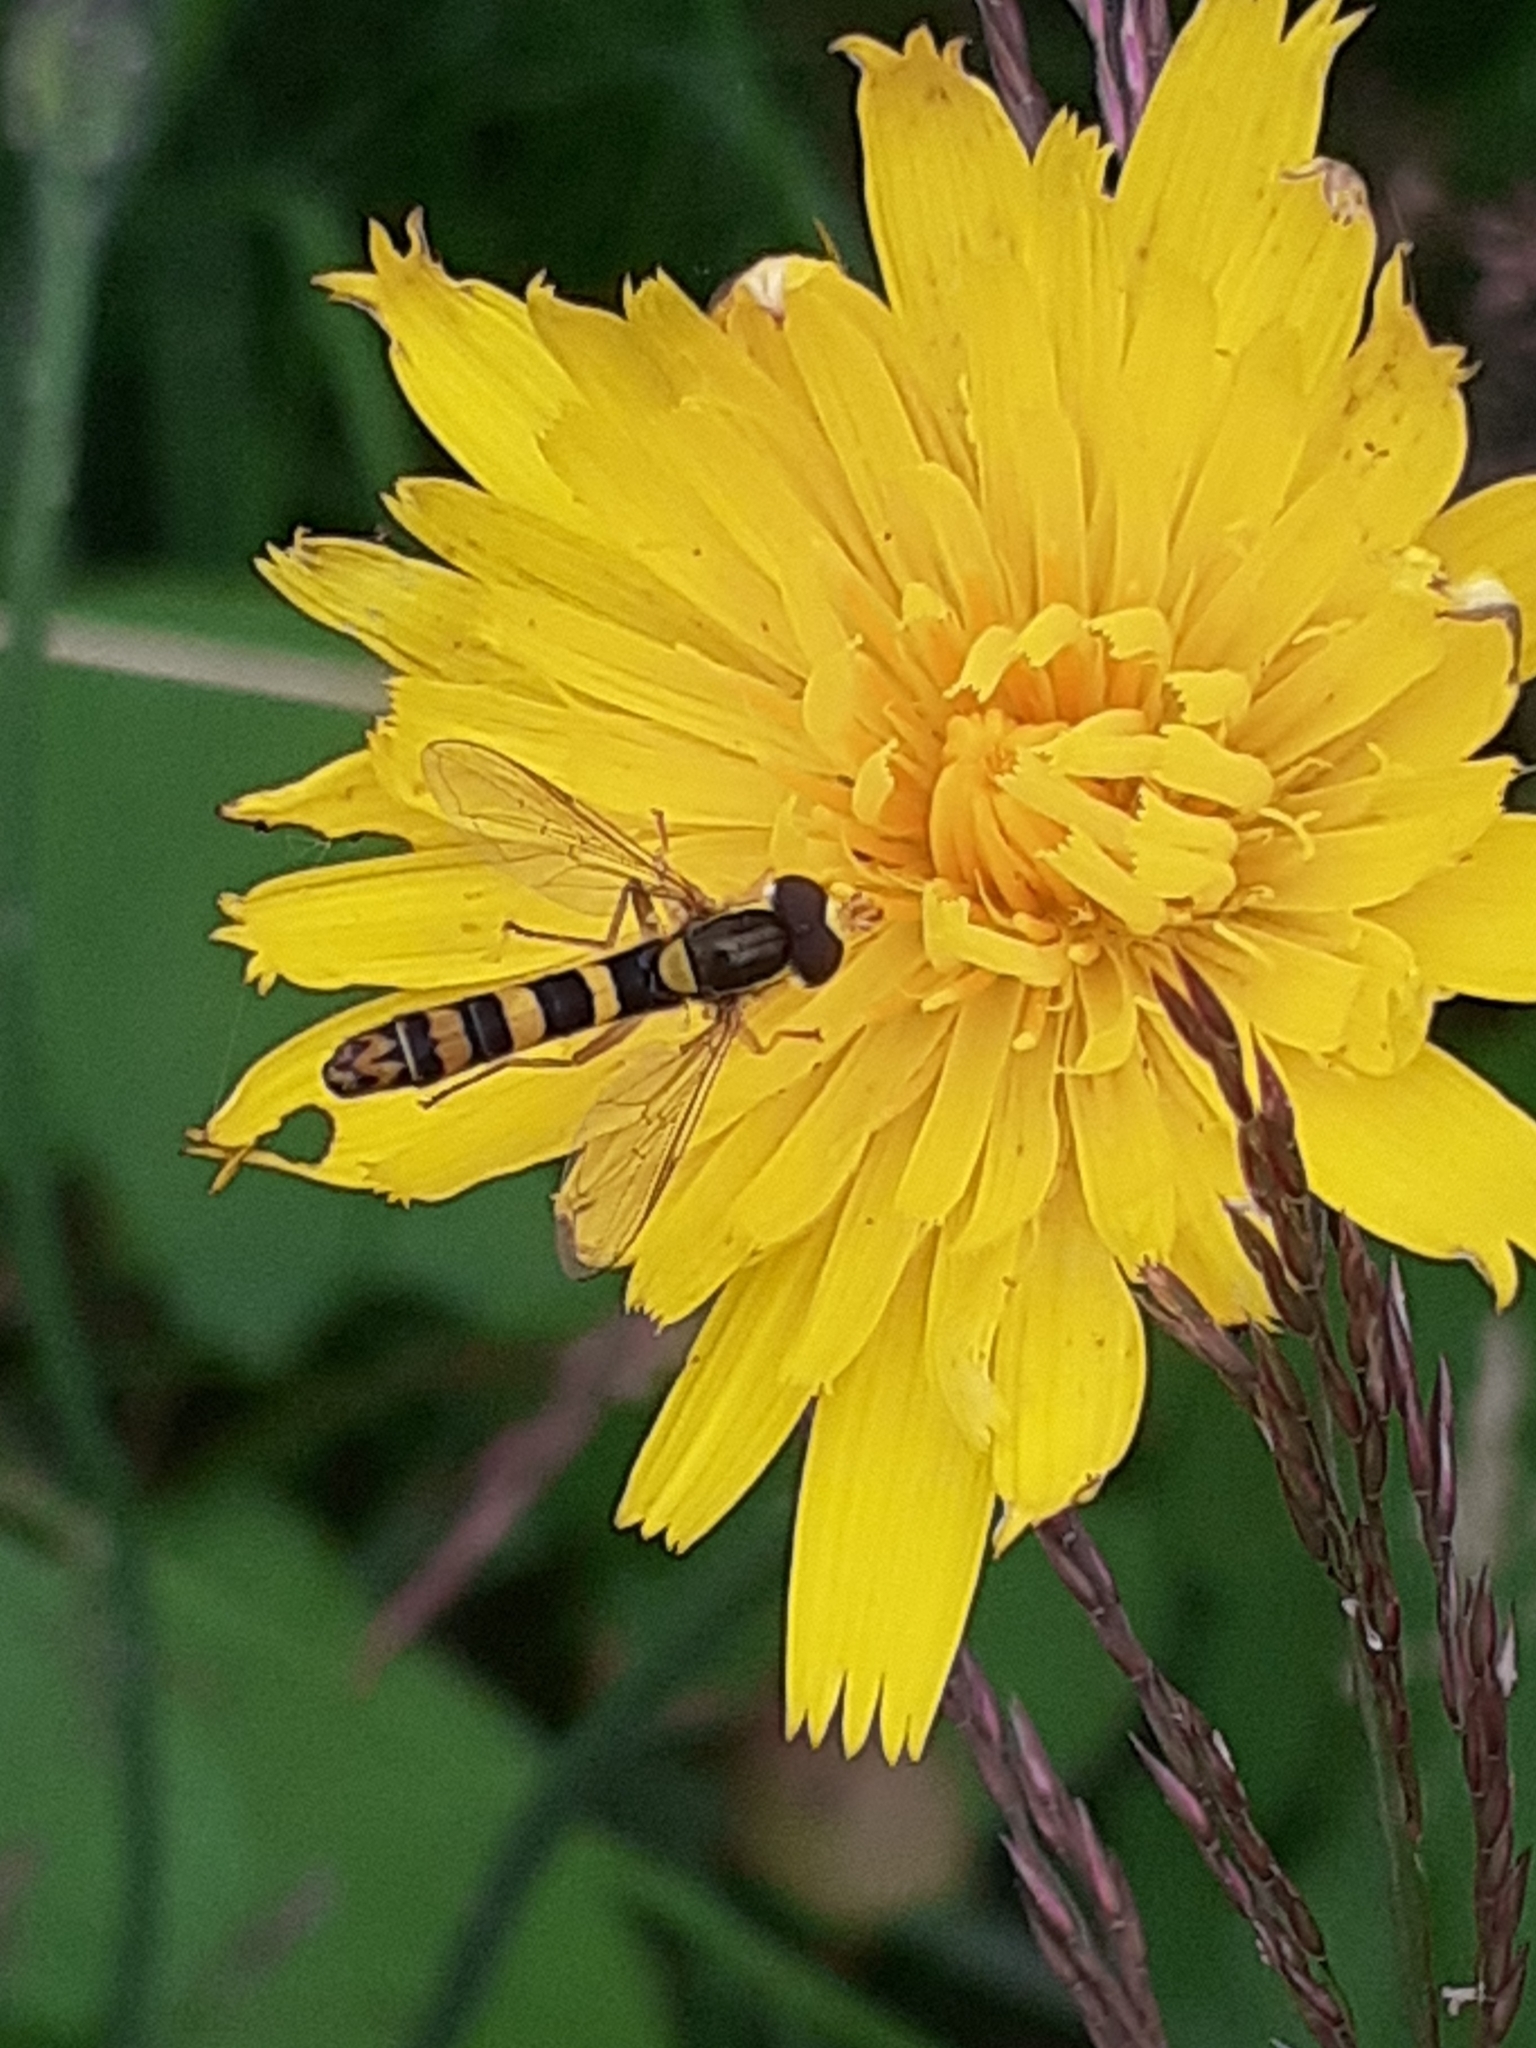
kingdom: Animalia
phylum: Arthropoda
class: Insecta
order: Diptera
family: Syrphidae
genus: Sphaerophoria
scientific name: Sphaerophoria scripta
